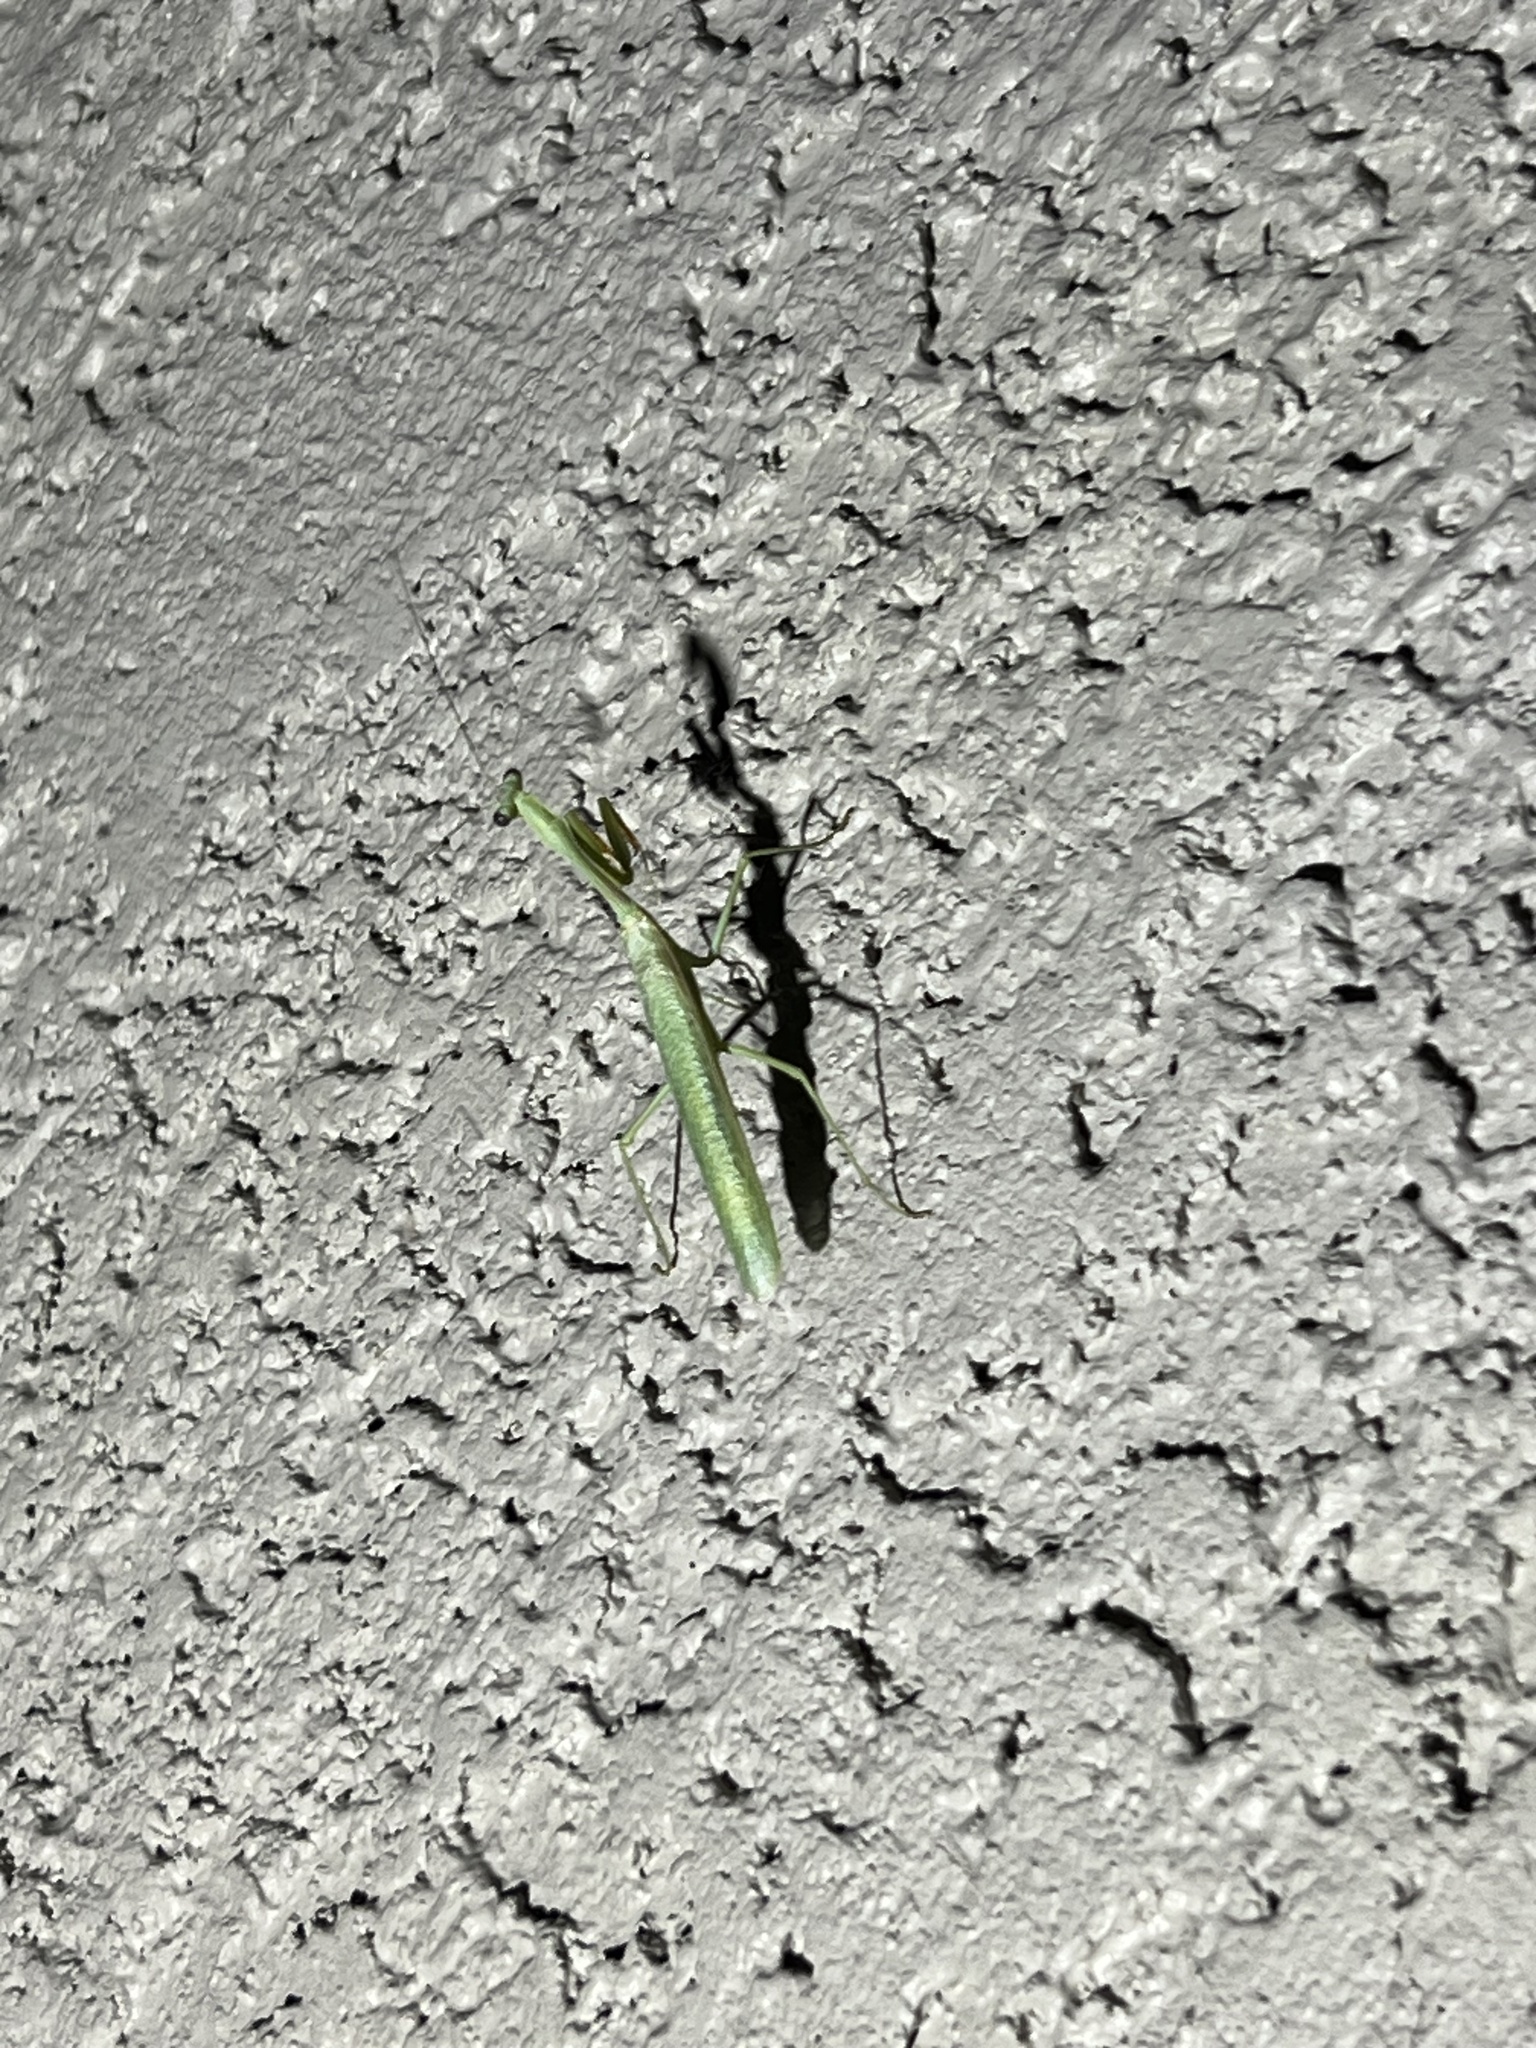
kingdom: Animalia
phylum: Arthropoda
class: Insecta
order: Mantodea
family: Mantidae
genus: Stagmomantis
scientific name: Stagmomantis limbata
